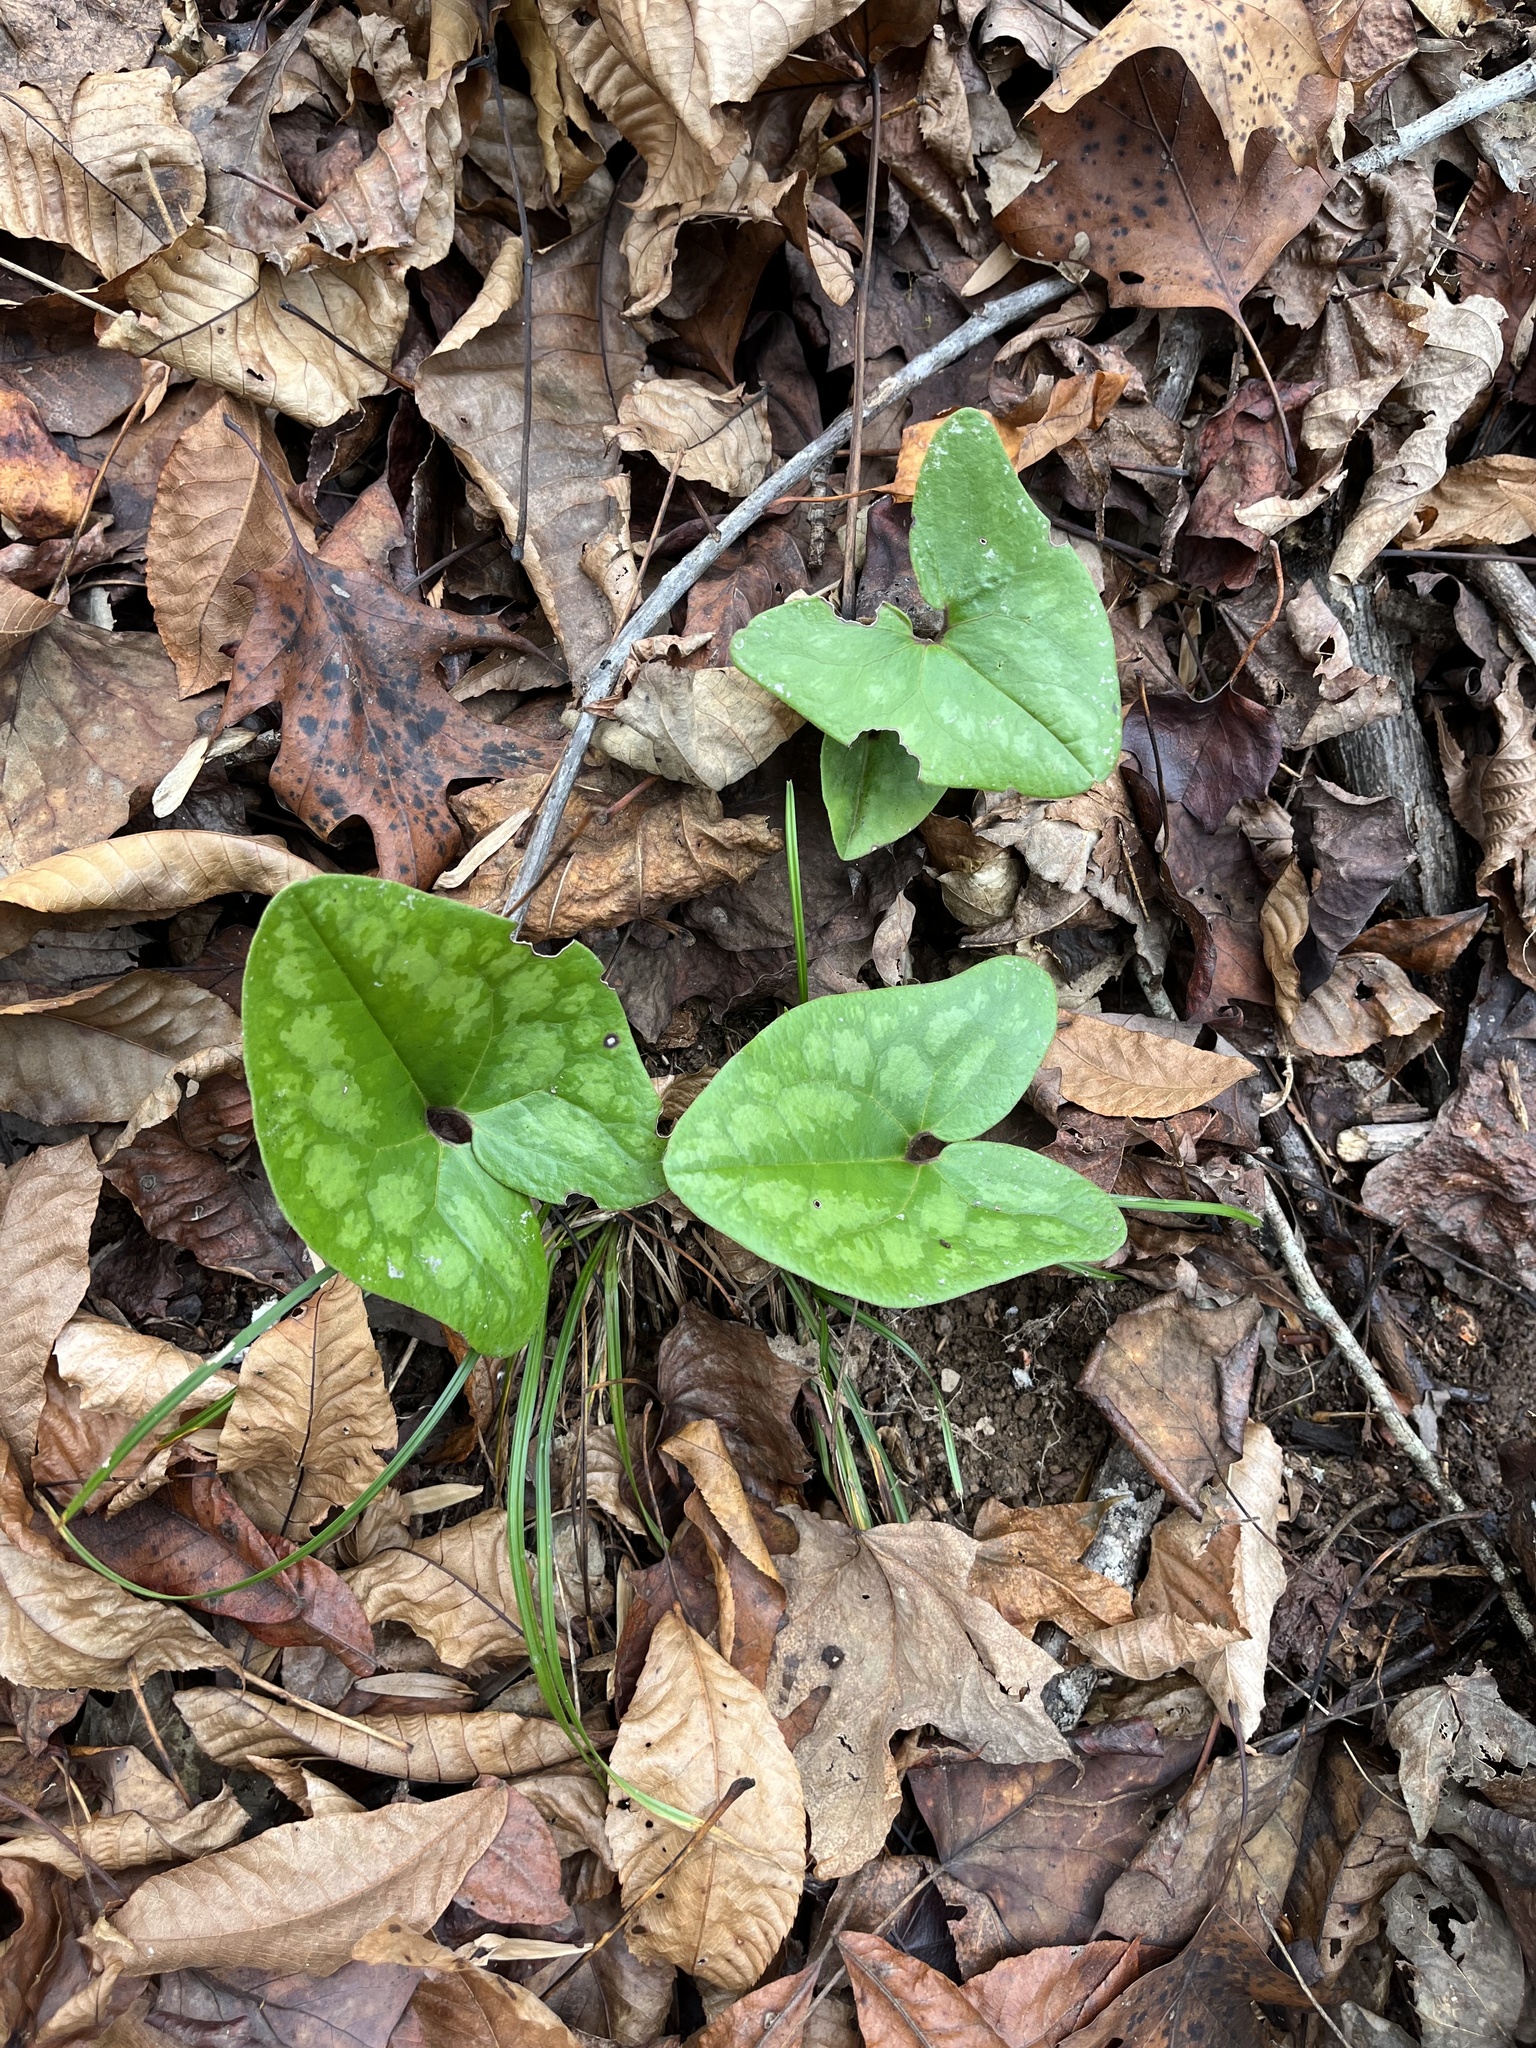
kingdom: Plantae
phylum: Tracheophyta
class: Magnoliopsida
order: Piperales
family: Aristolochiaceae
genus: Hexastylis
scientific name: Hexastylis arifolia
